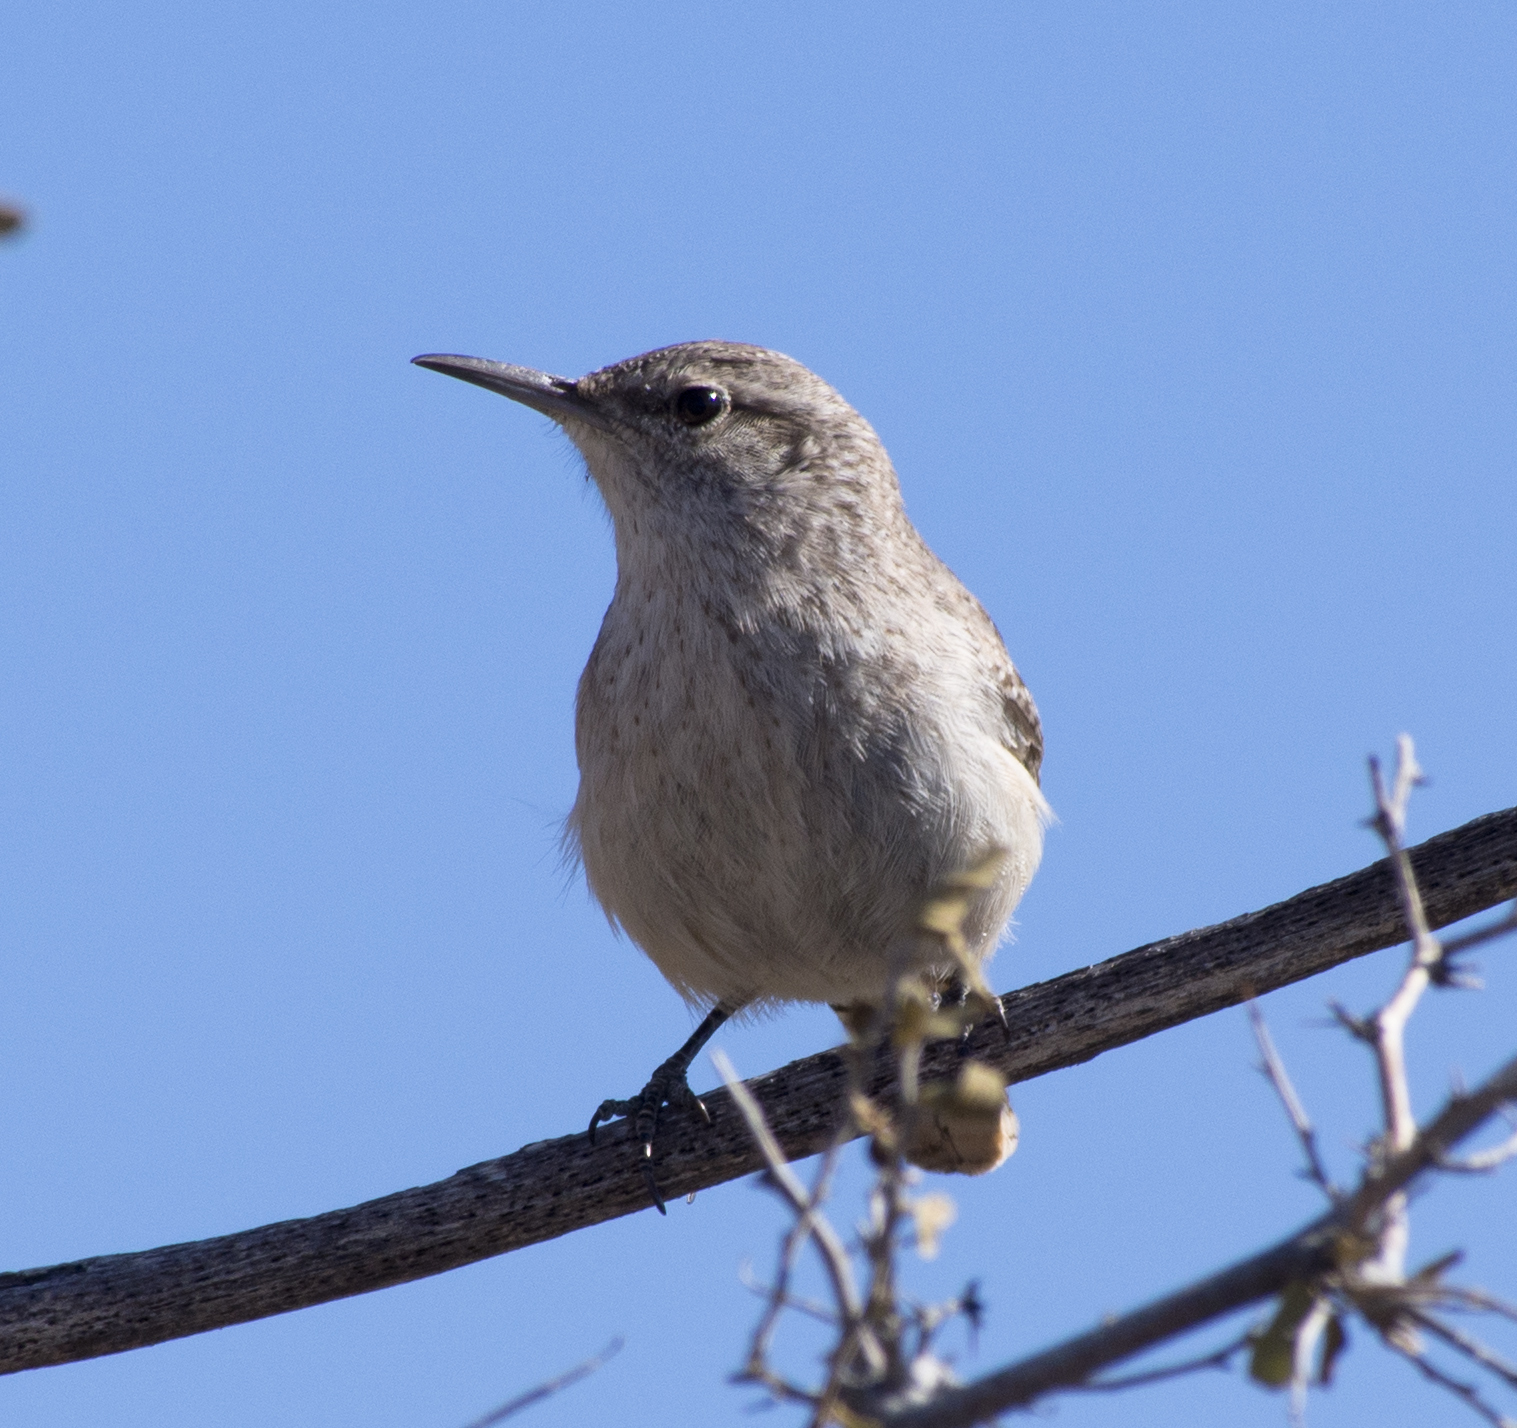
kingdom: Animalia
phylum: Chordata
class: Aves
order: Passeriformes
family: Troglodytidae
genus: Salpinctes
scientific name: Salpinctes obsoletus
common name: Rock wren
